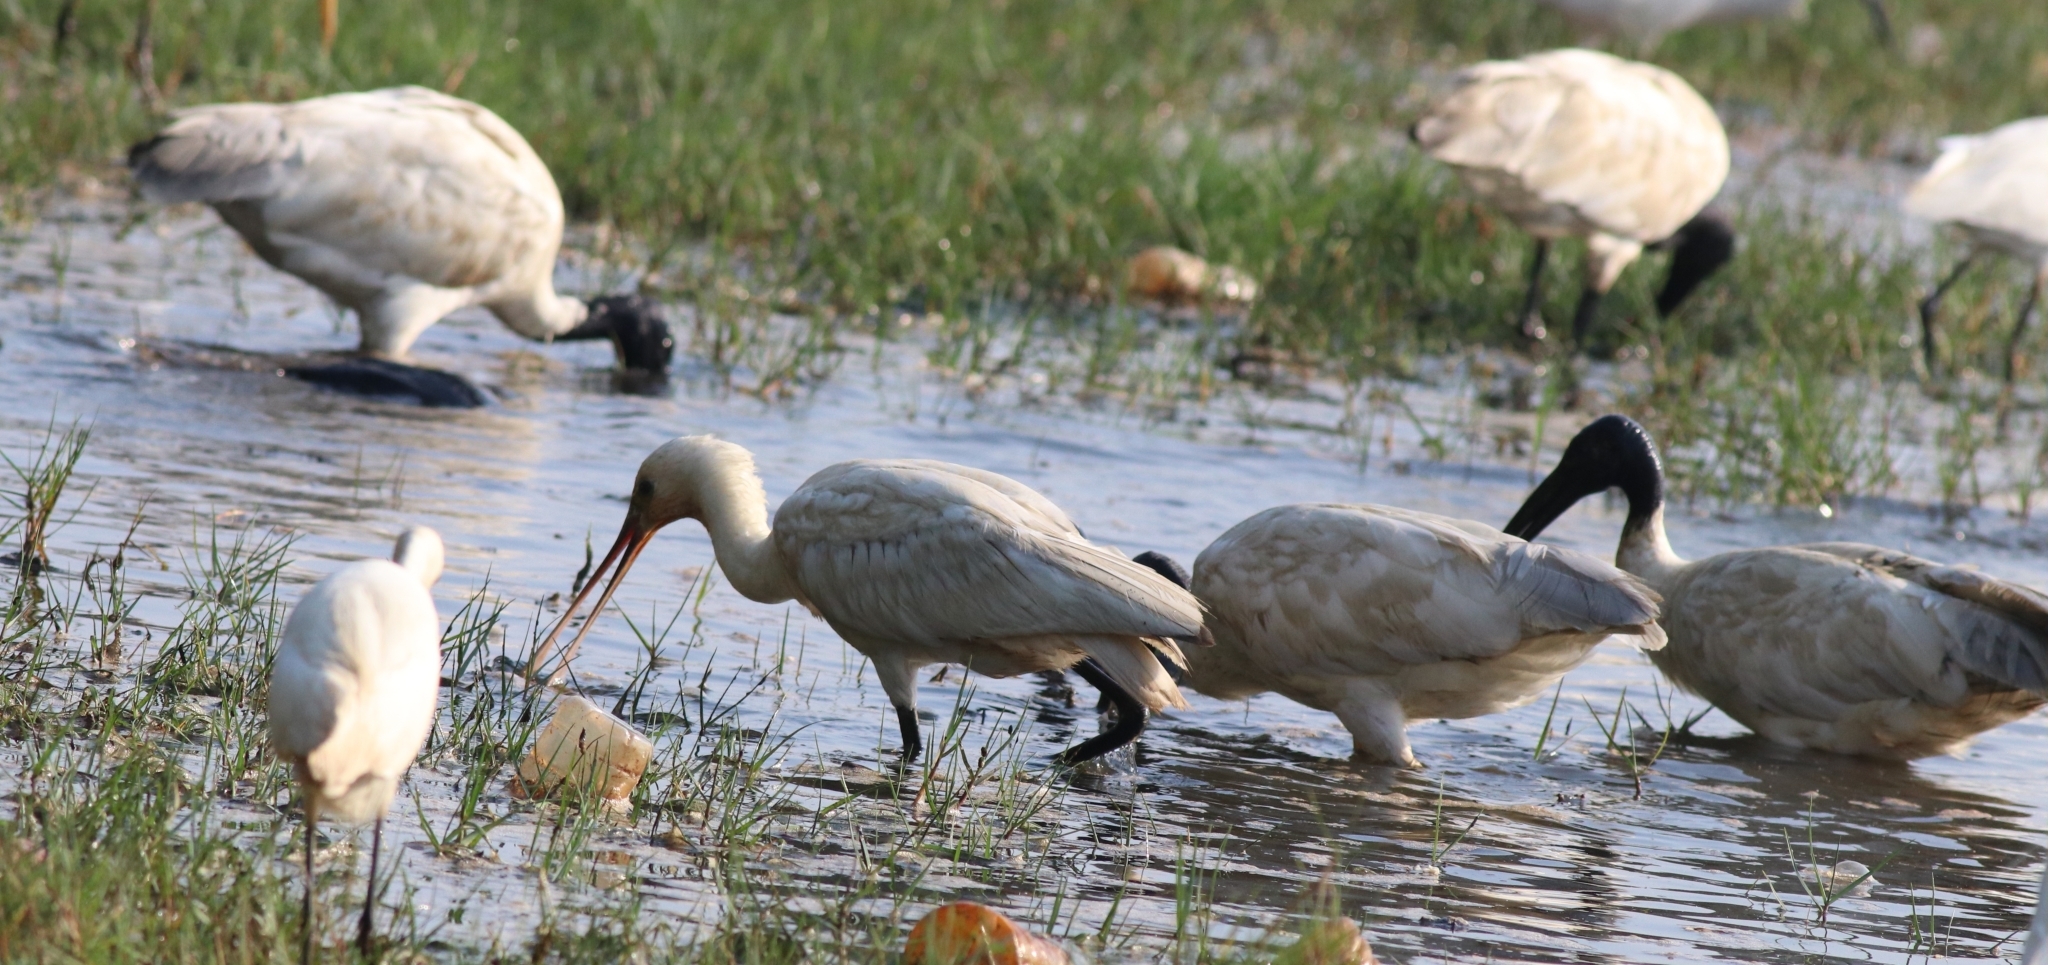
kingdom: Animalia
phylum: Chordata
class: Aves
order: Pelecaniformes
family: Threskiornithidae
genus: Threskiornis
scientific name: Threskiornis melanocephalus
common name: Black-headed ibis
